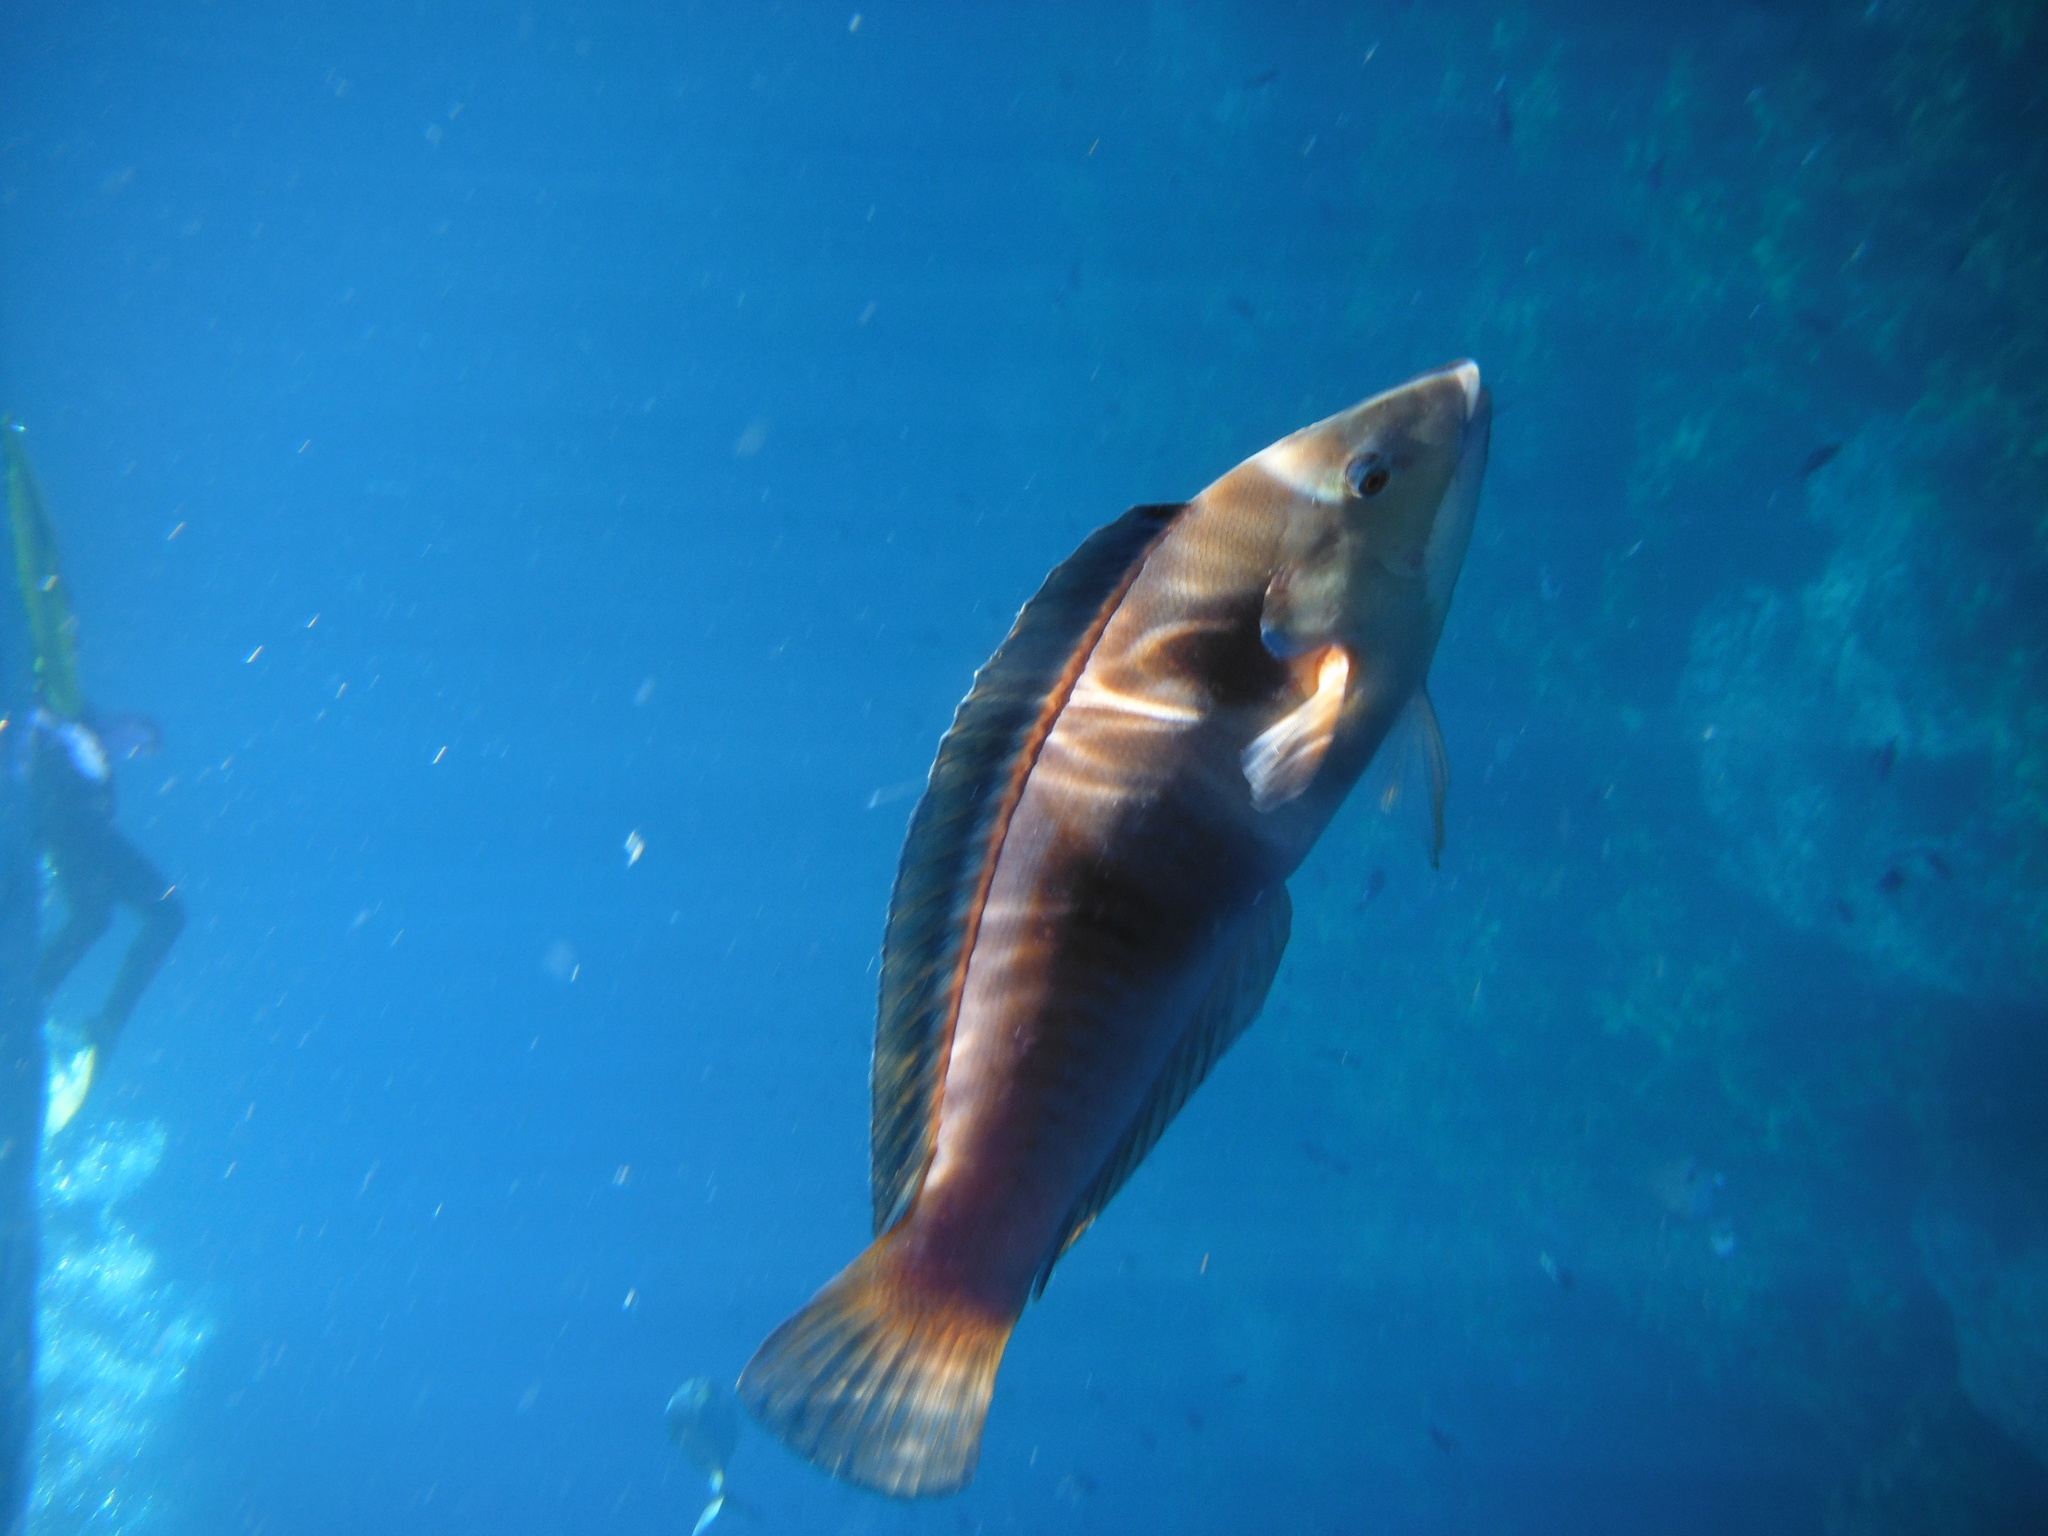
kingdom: Animalia
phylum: Chordata
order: Perciformes
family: Labridae
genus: Coris
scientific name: Coris sandeyeri
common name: Sandager's wrasse
